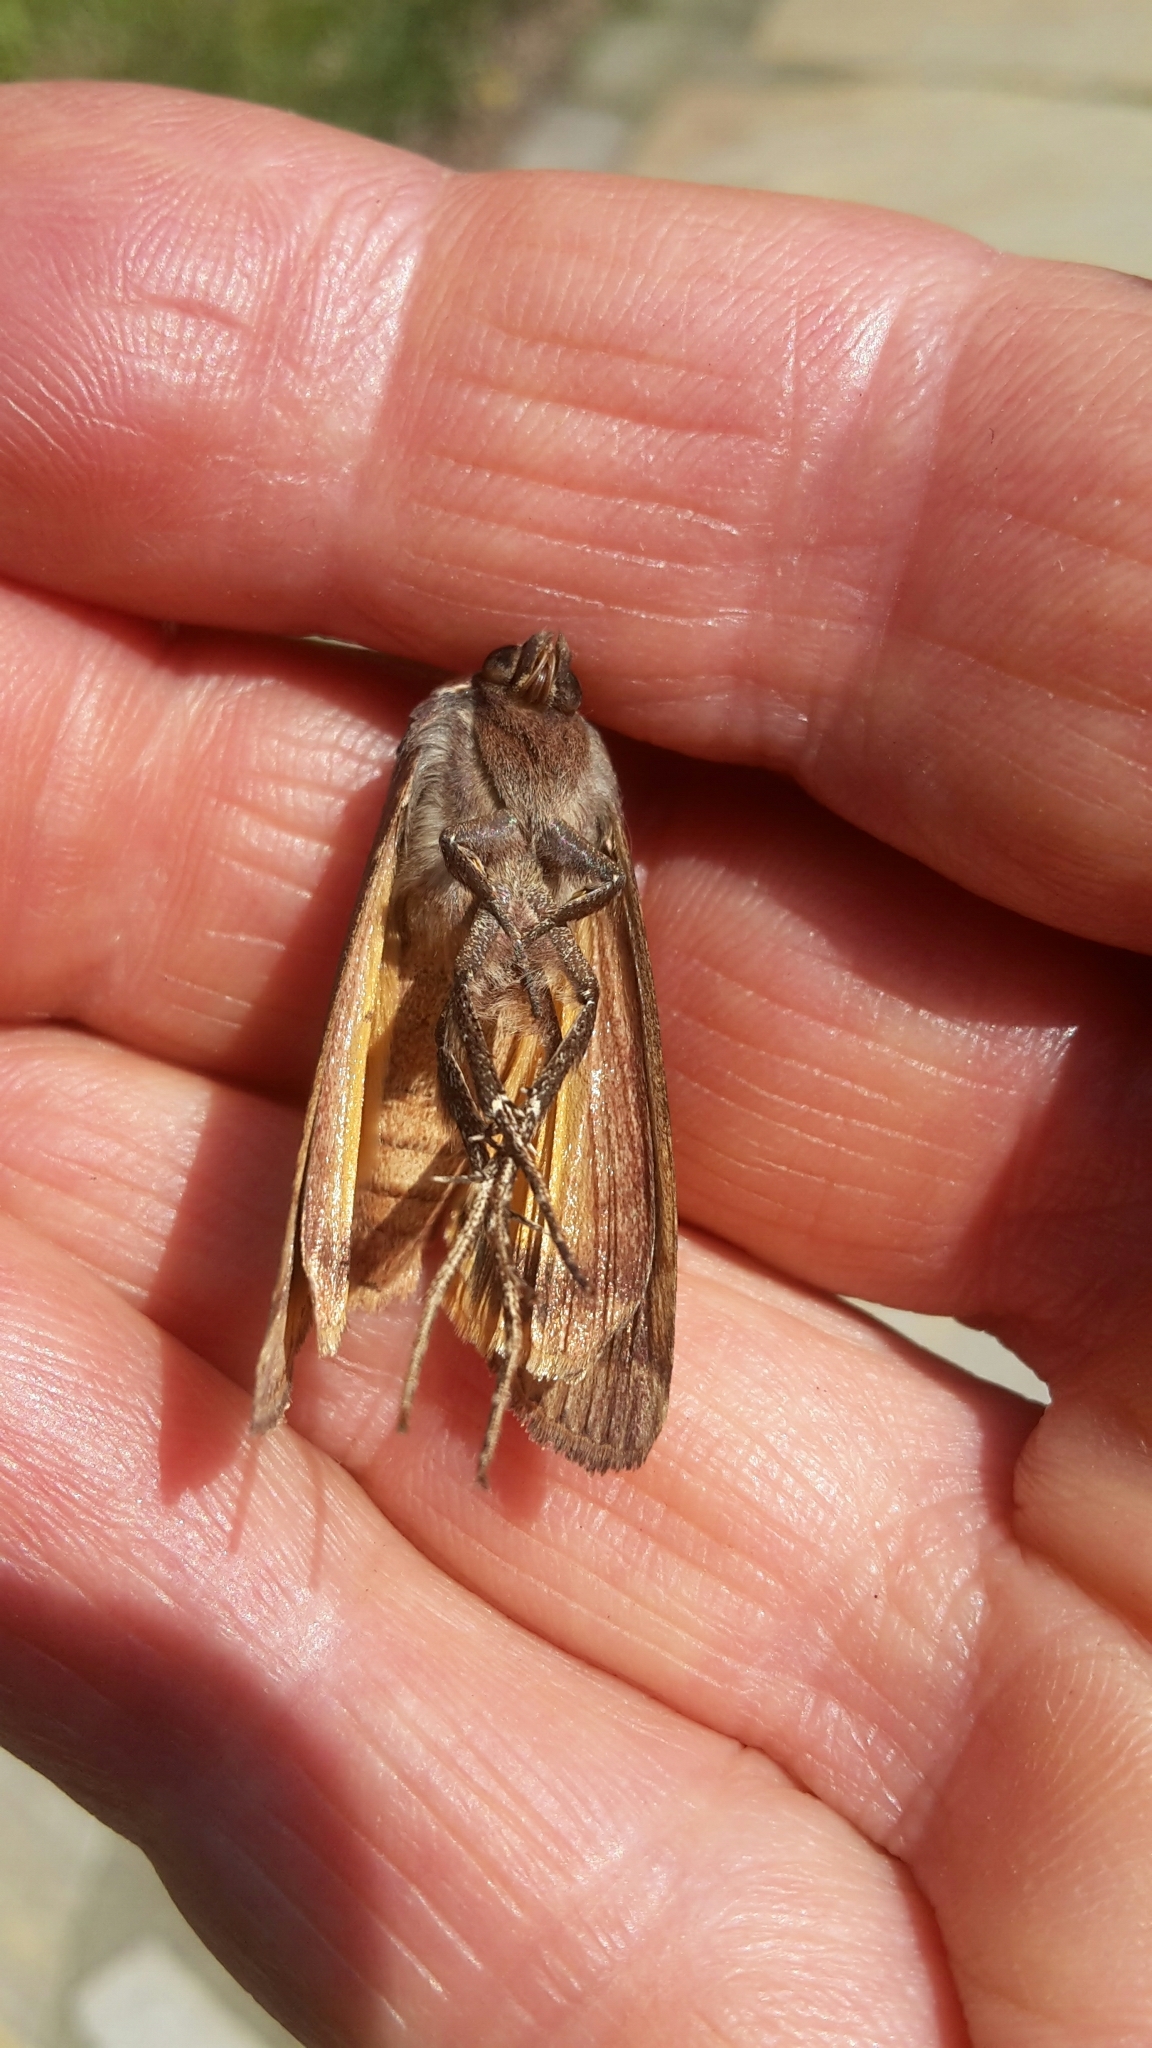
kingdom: Animalia
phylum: Arthropoda
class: Insecta
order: Lepidoptera
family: Noctuidae
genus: Noctua
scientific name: Noctua pronuba
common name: Large yellow underwing
